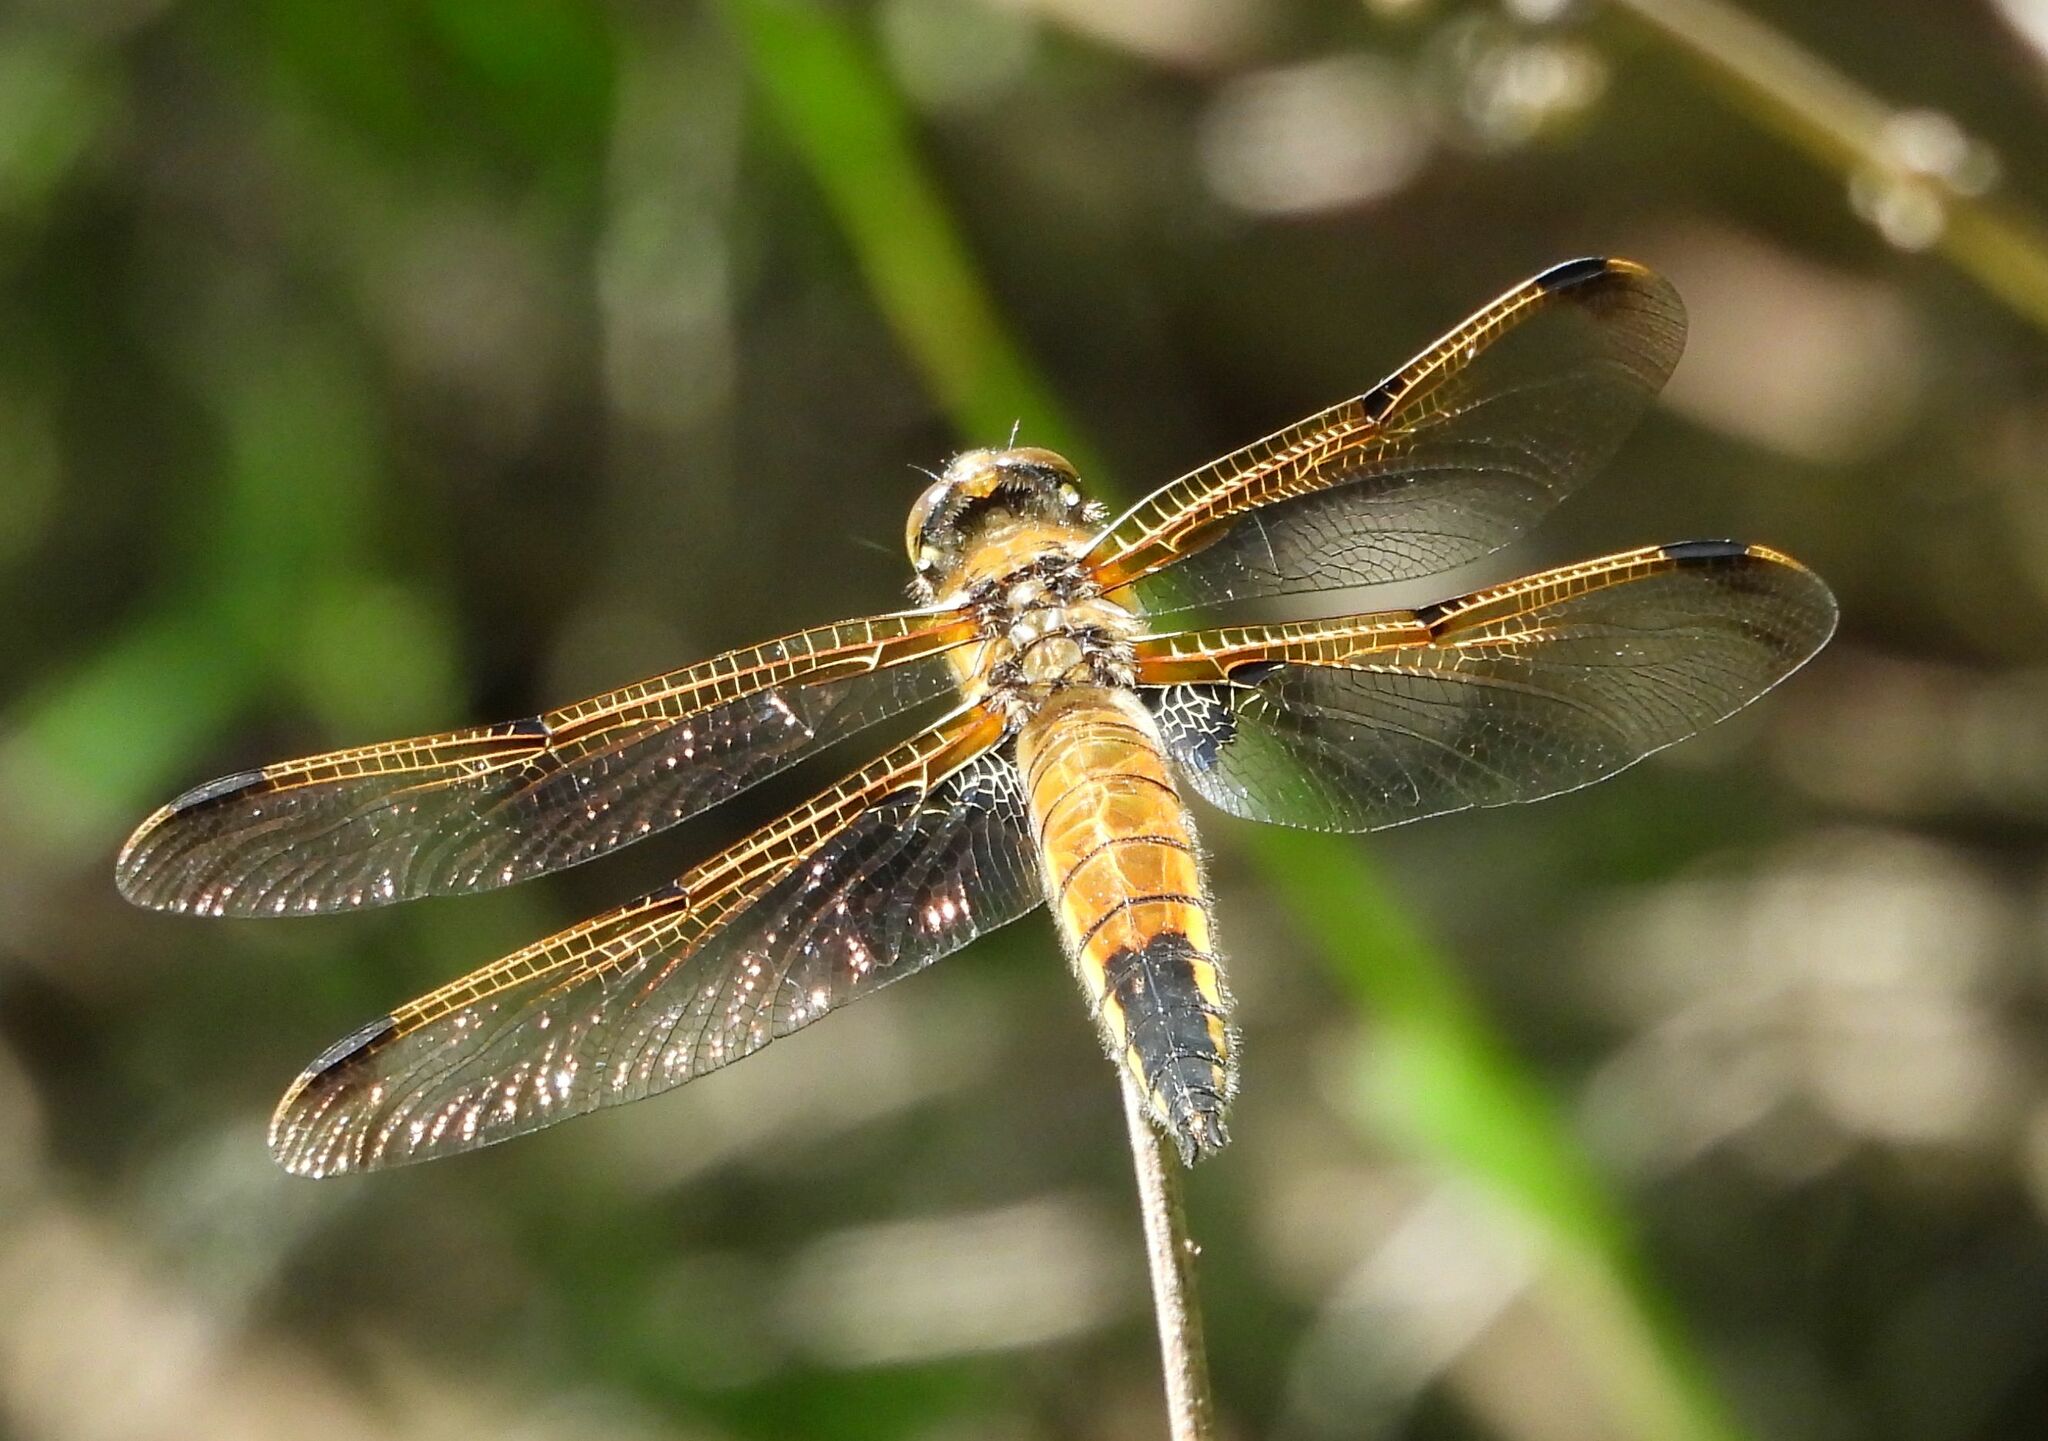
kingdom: Animalia
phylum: Arthropoda
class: Insecta
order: Odonata
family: Libellulidae
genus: Libellula
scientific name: Libellula quadrimaculata
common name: Four-spotted chaser
